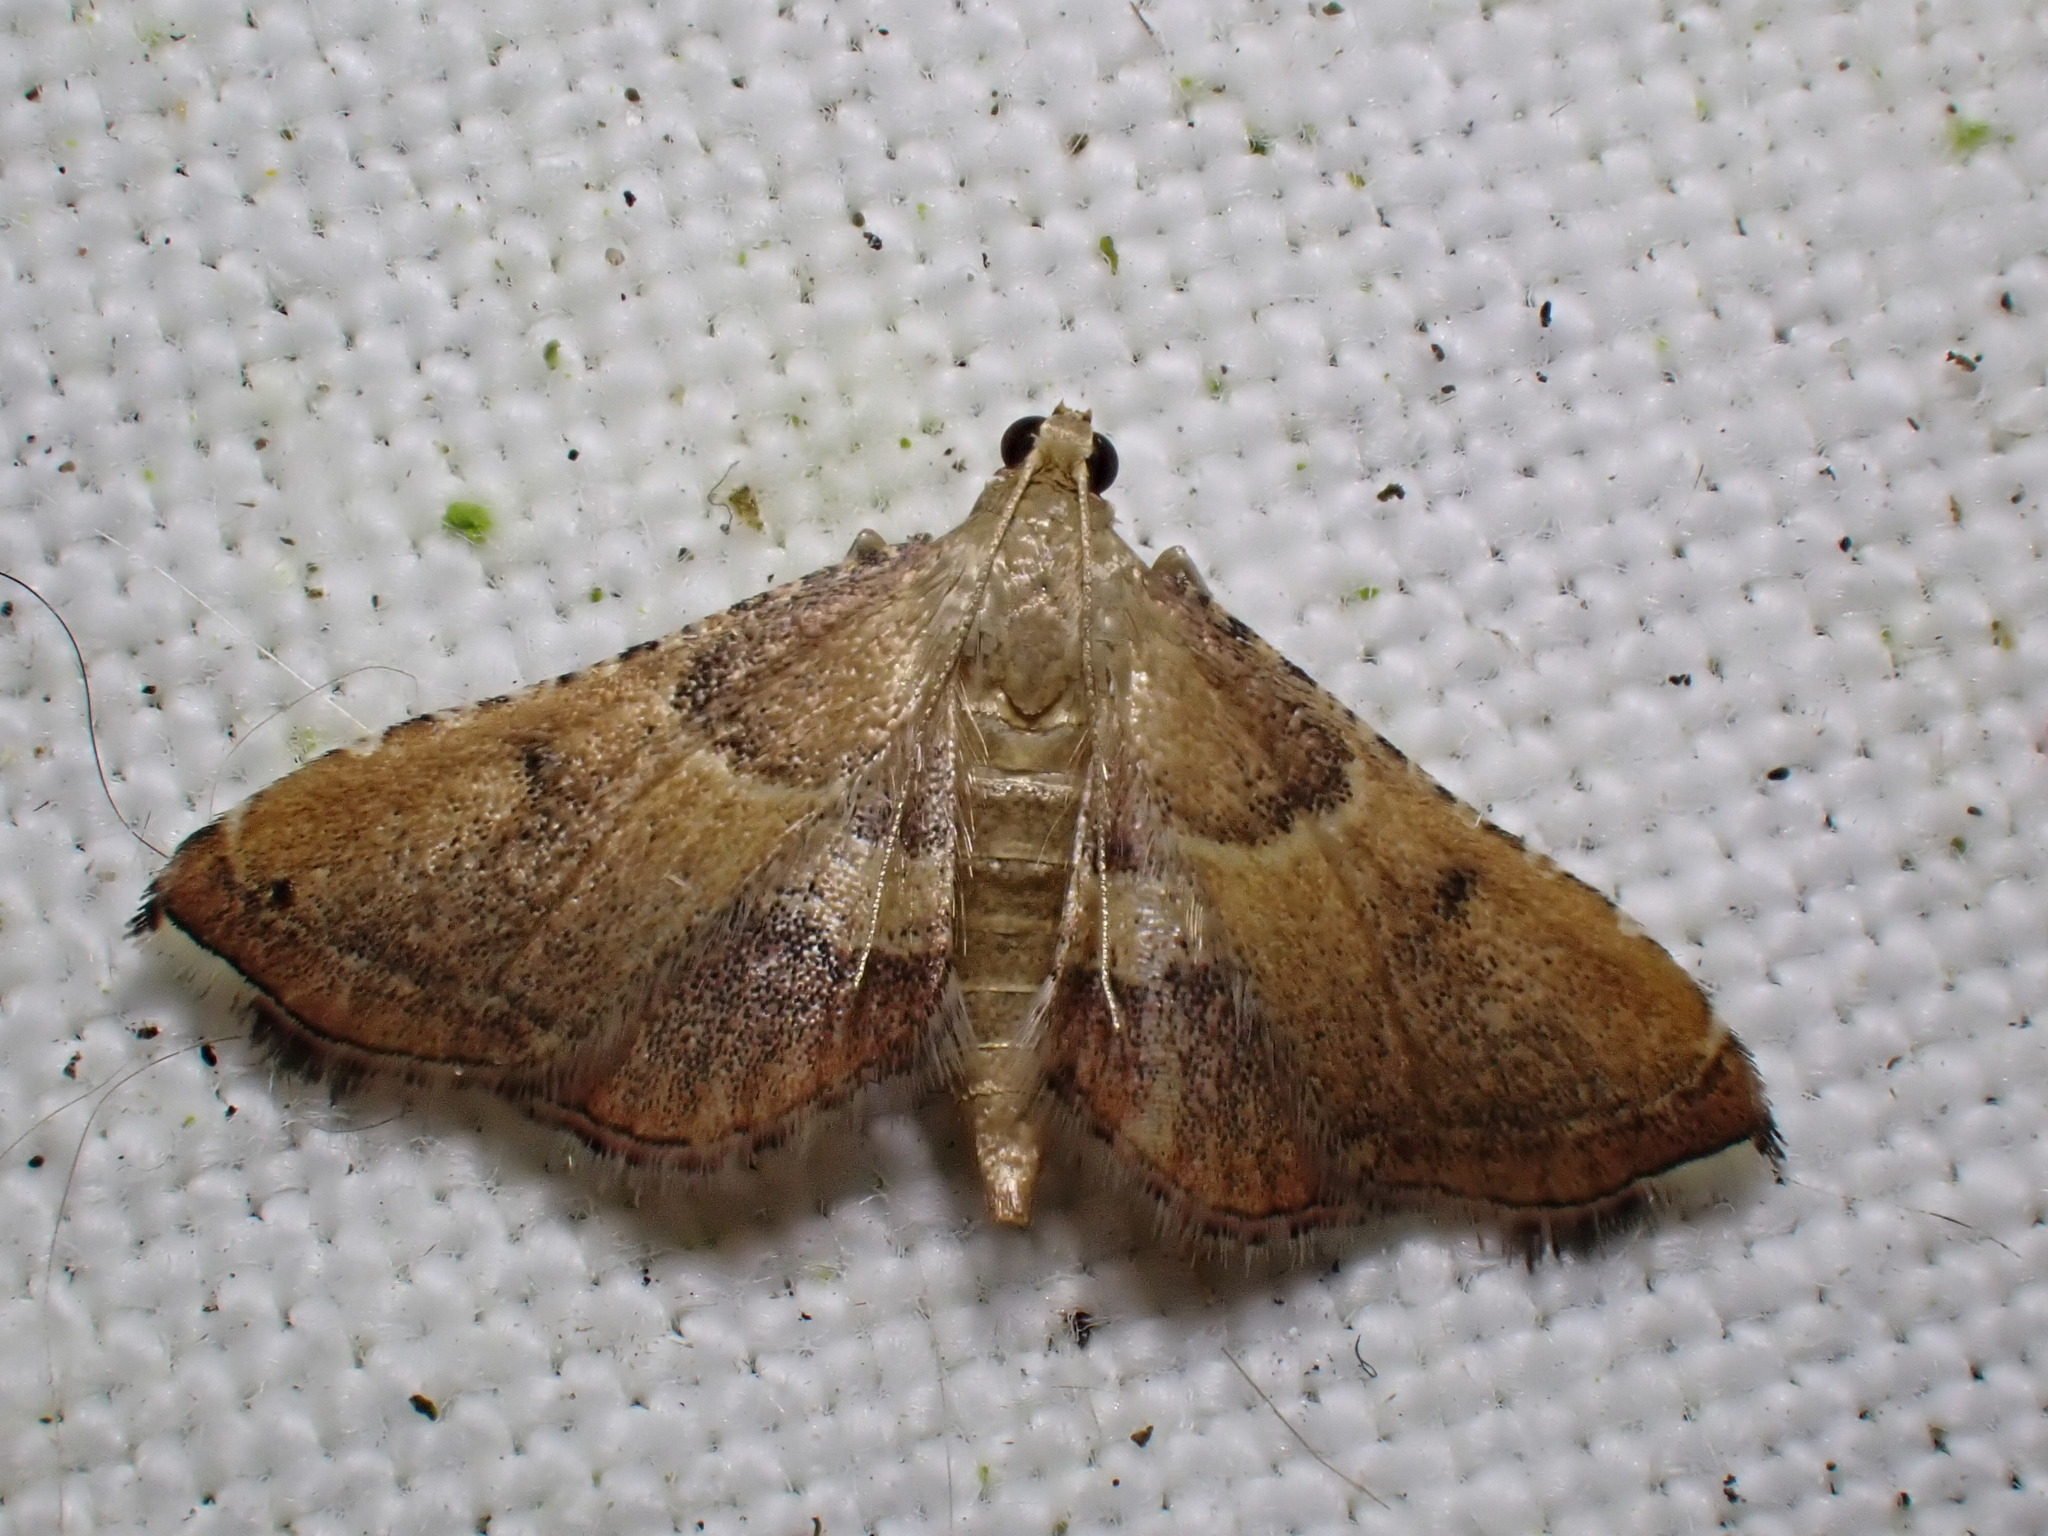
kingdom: Animalia
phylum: Arthropoda
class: Insecta
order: Lepidoptera
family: Pyralidae
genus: Endotricha
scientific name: Endotricha flammealis
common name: Rosy tabby
